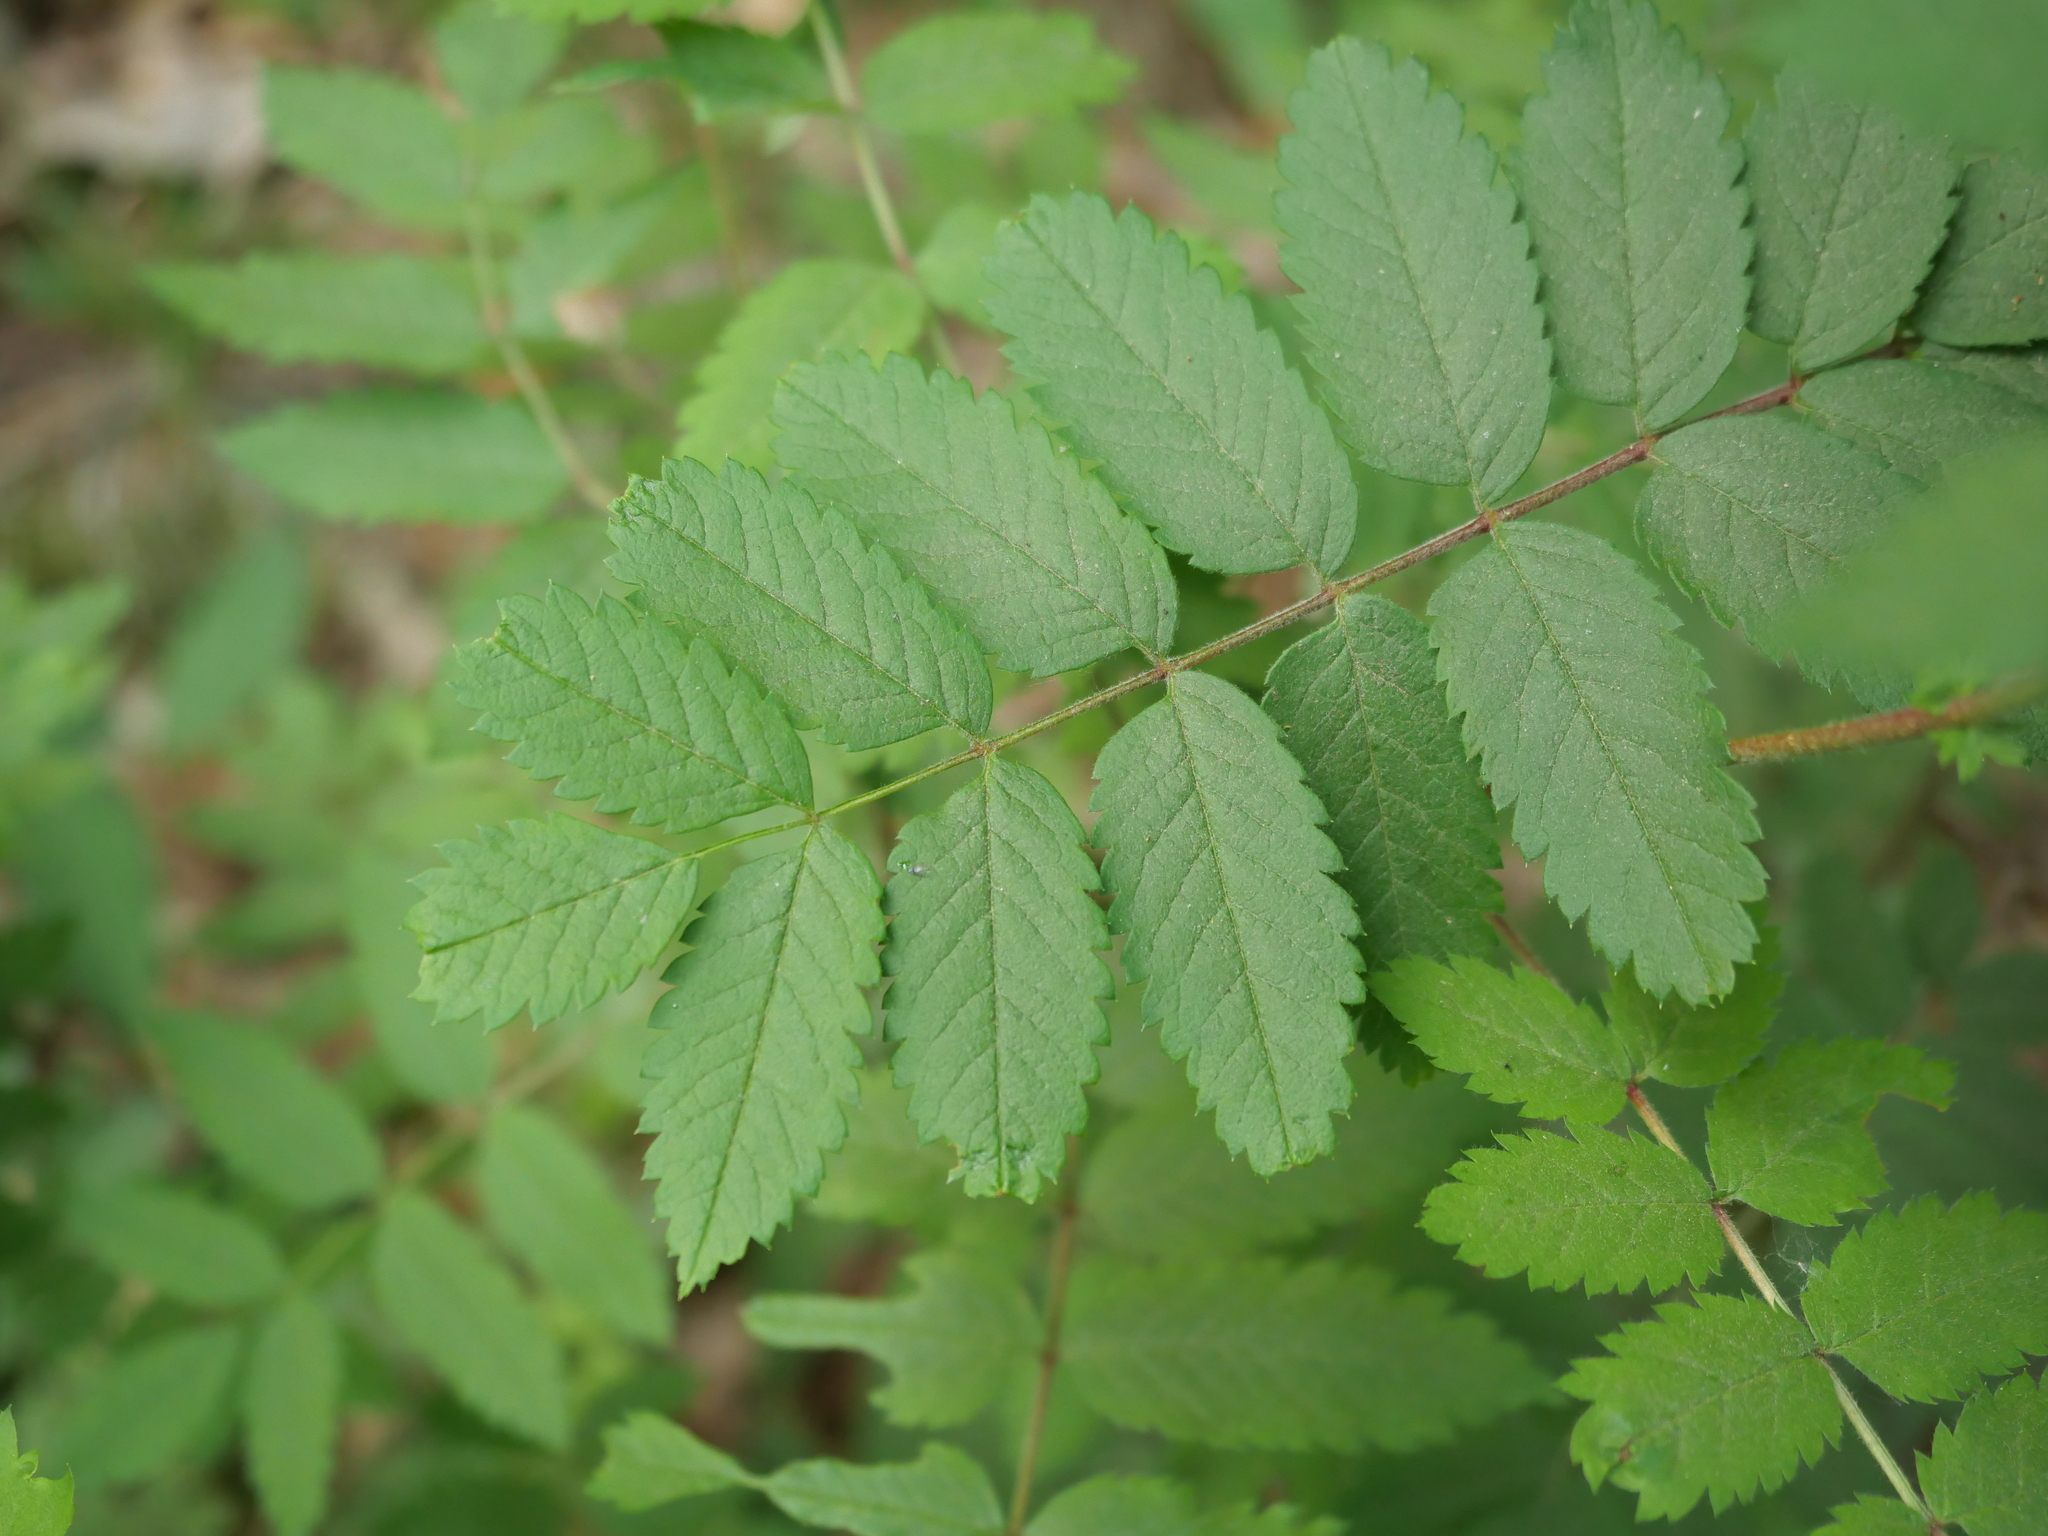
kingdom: Plantae
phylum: Tracheophyta
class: Magnoliopsida
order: Rosales
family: Rosaceae
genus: Sorbus
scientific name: Sorbus aucuparia
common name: Rowan
